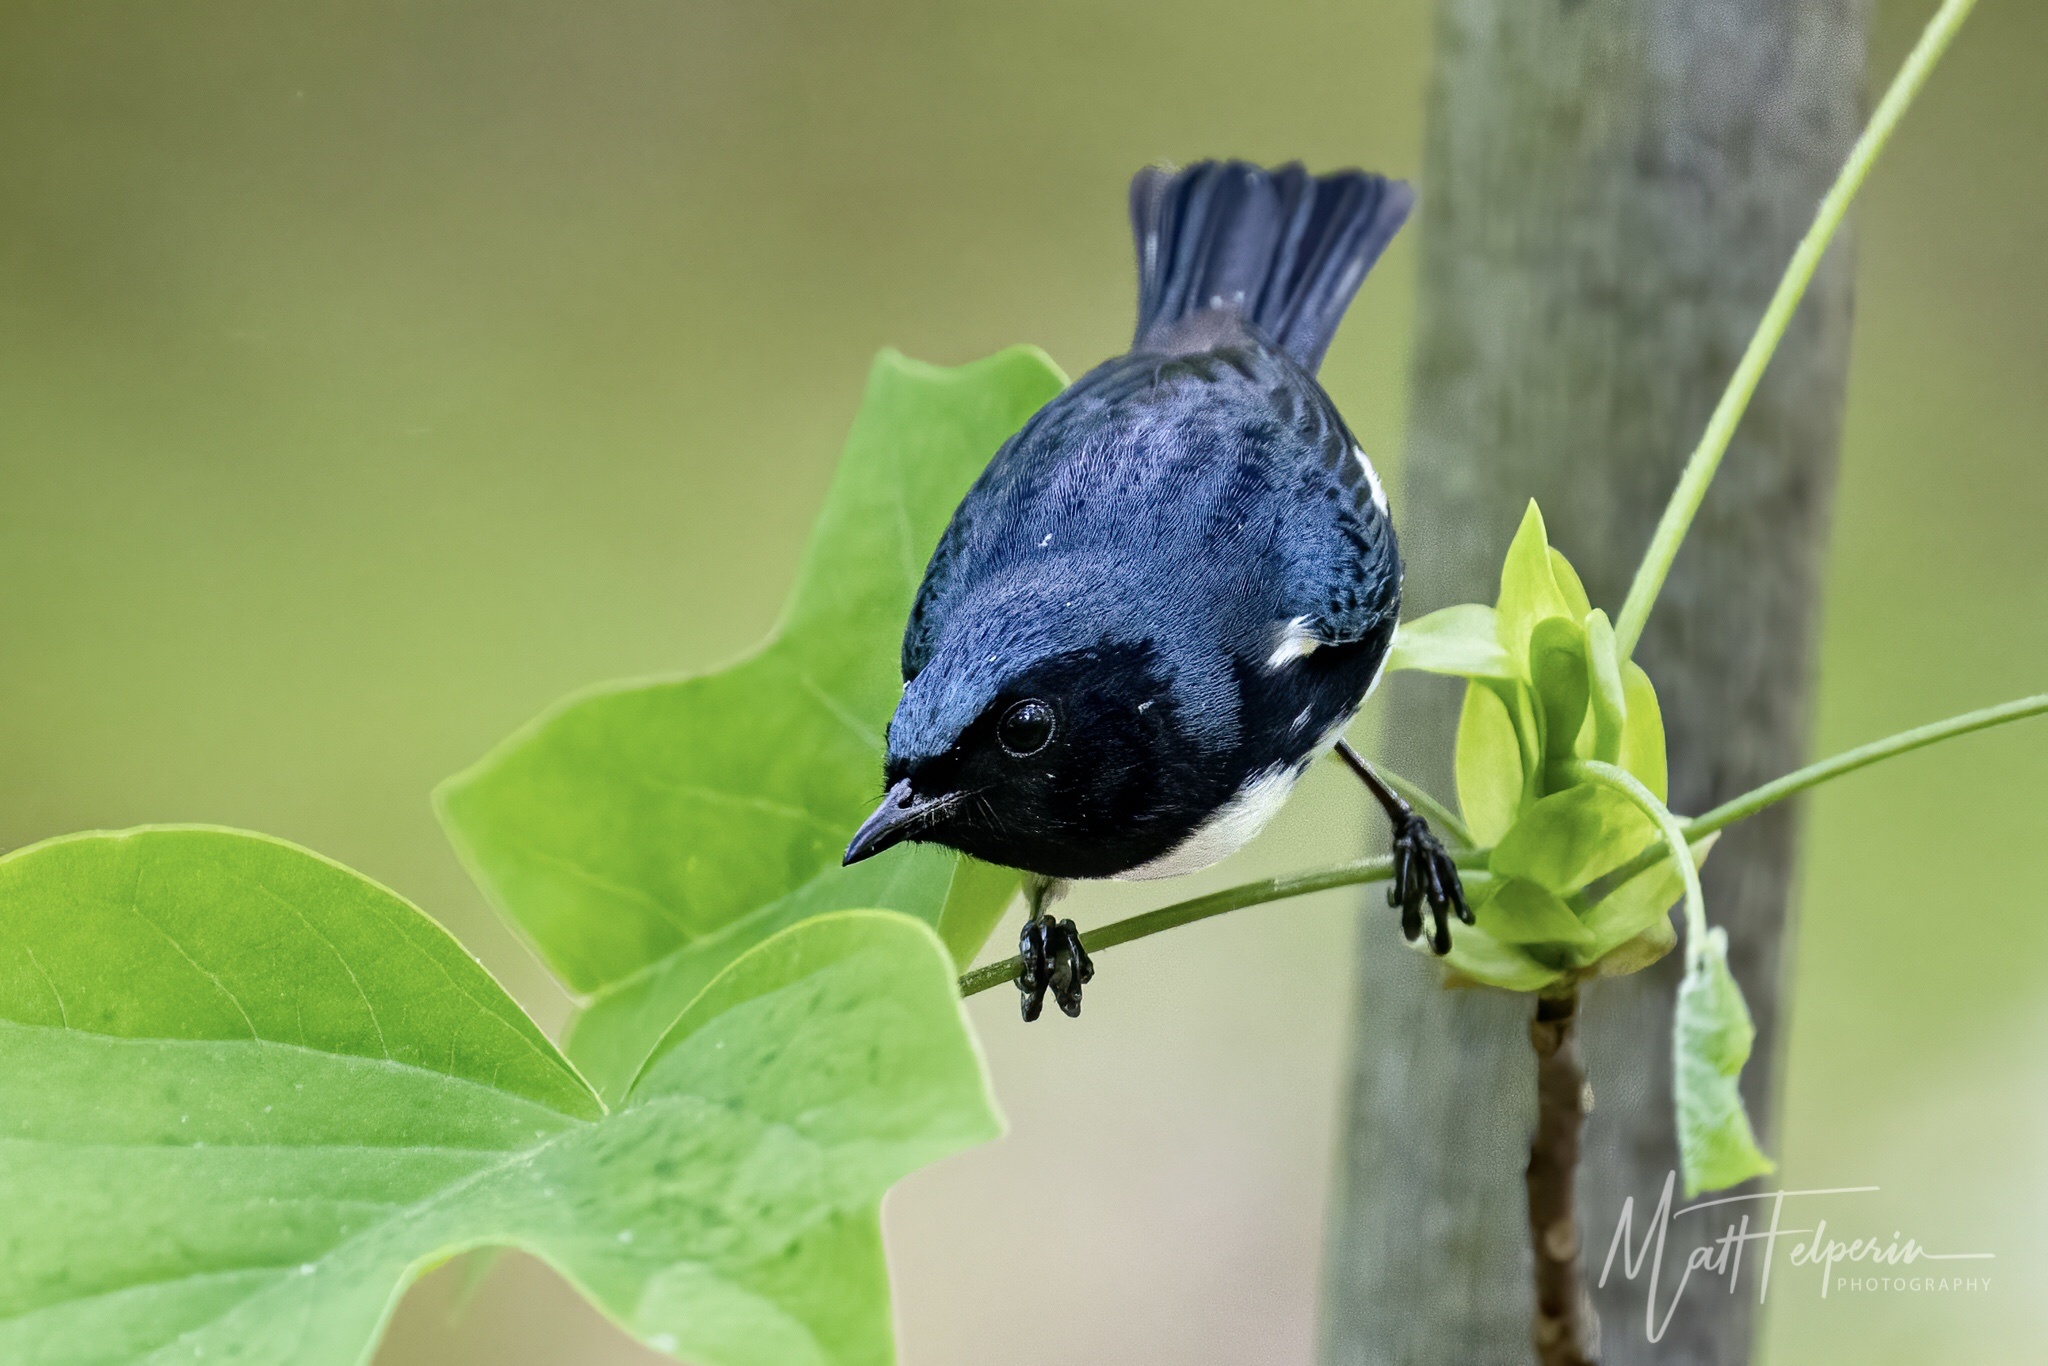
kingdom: Animalia
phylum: Chordata
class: Aves
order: Passeriformes
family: Parulidae
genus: Setophaga
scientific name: Setophaga caerulescens
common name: Black-throated blue warbler
